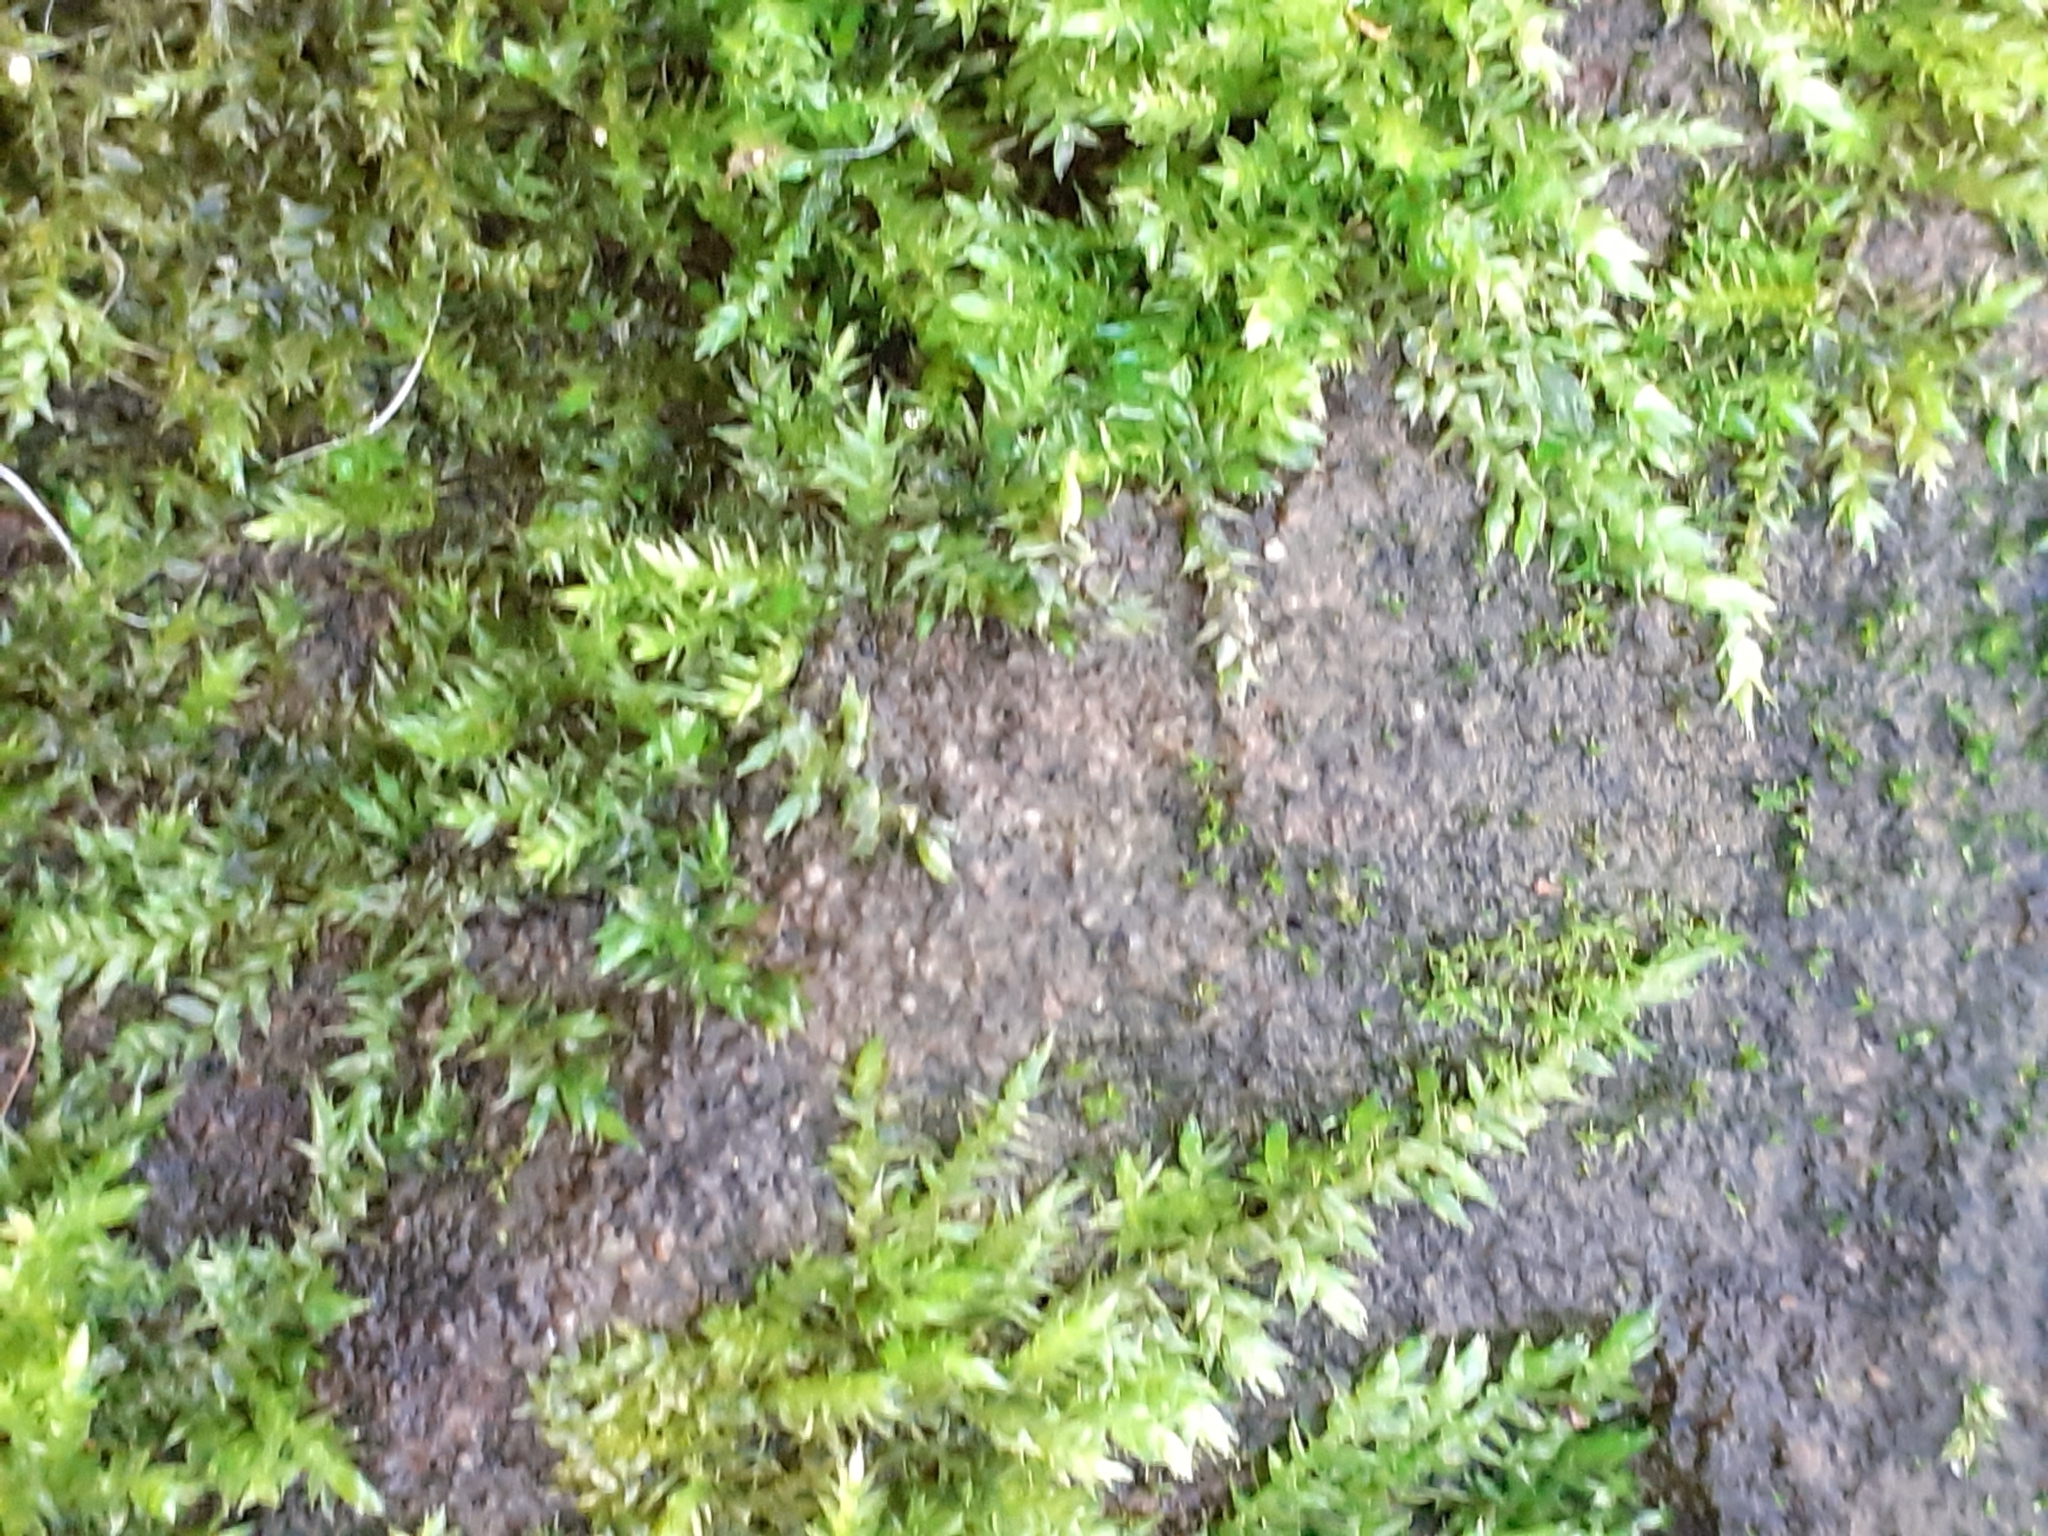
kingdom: Plantae
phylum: Bryophyta
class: Bryopsida
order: Hypnales
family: Brachytheciaceae
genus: Brachythecium
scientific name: Brachythecium rutabulum
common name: Rough-stalked feather-moss
